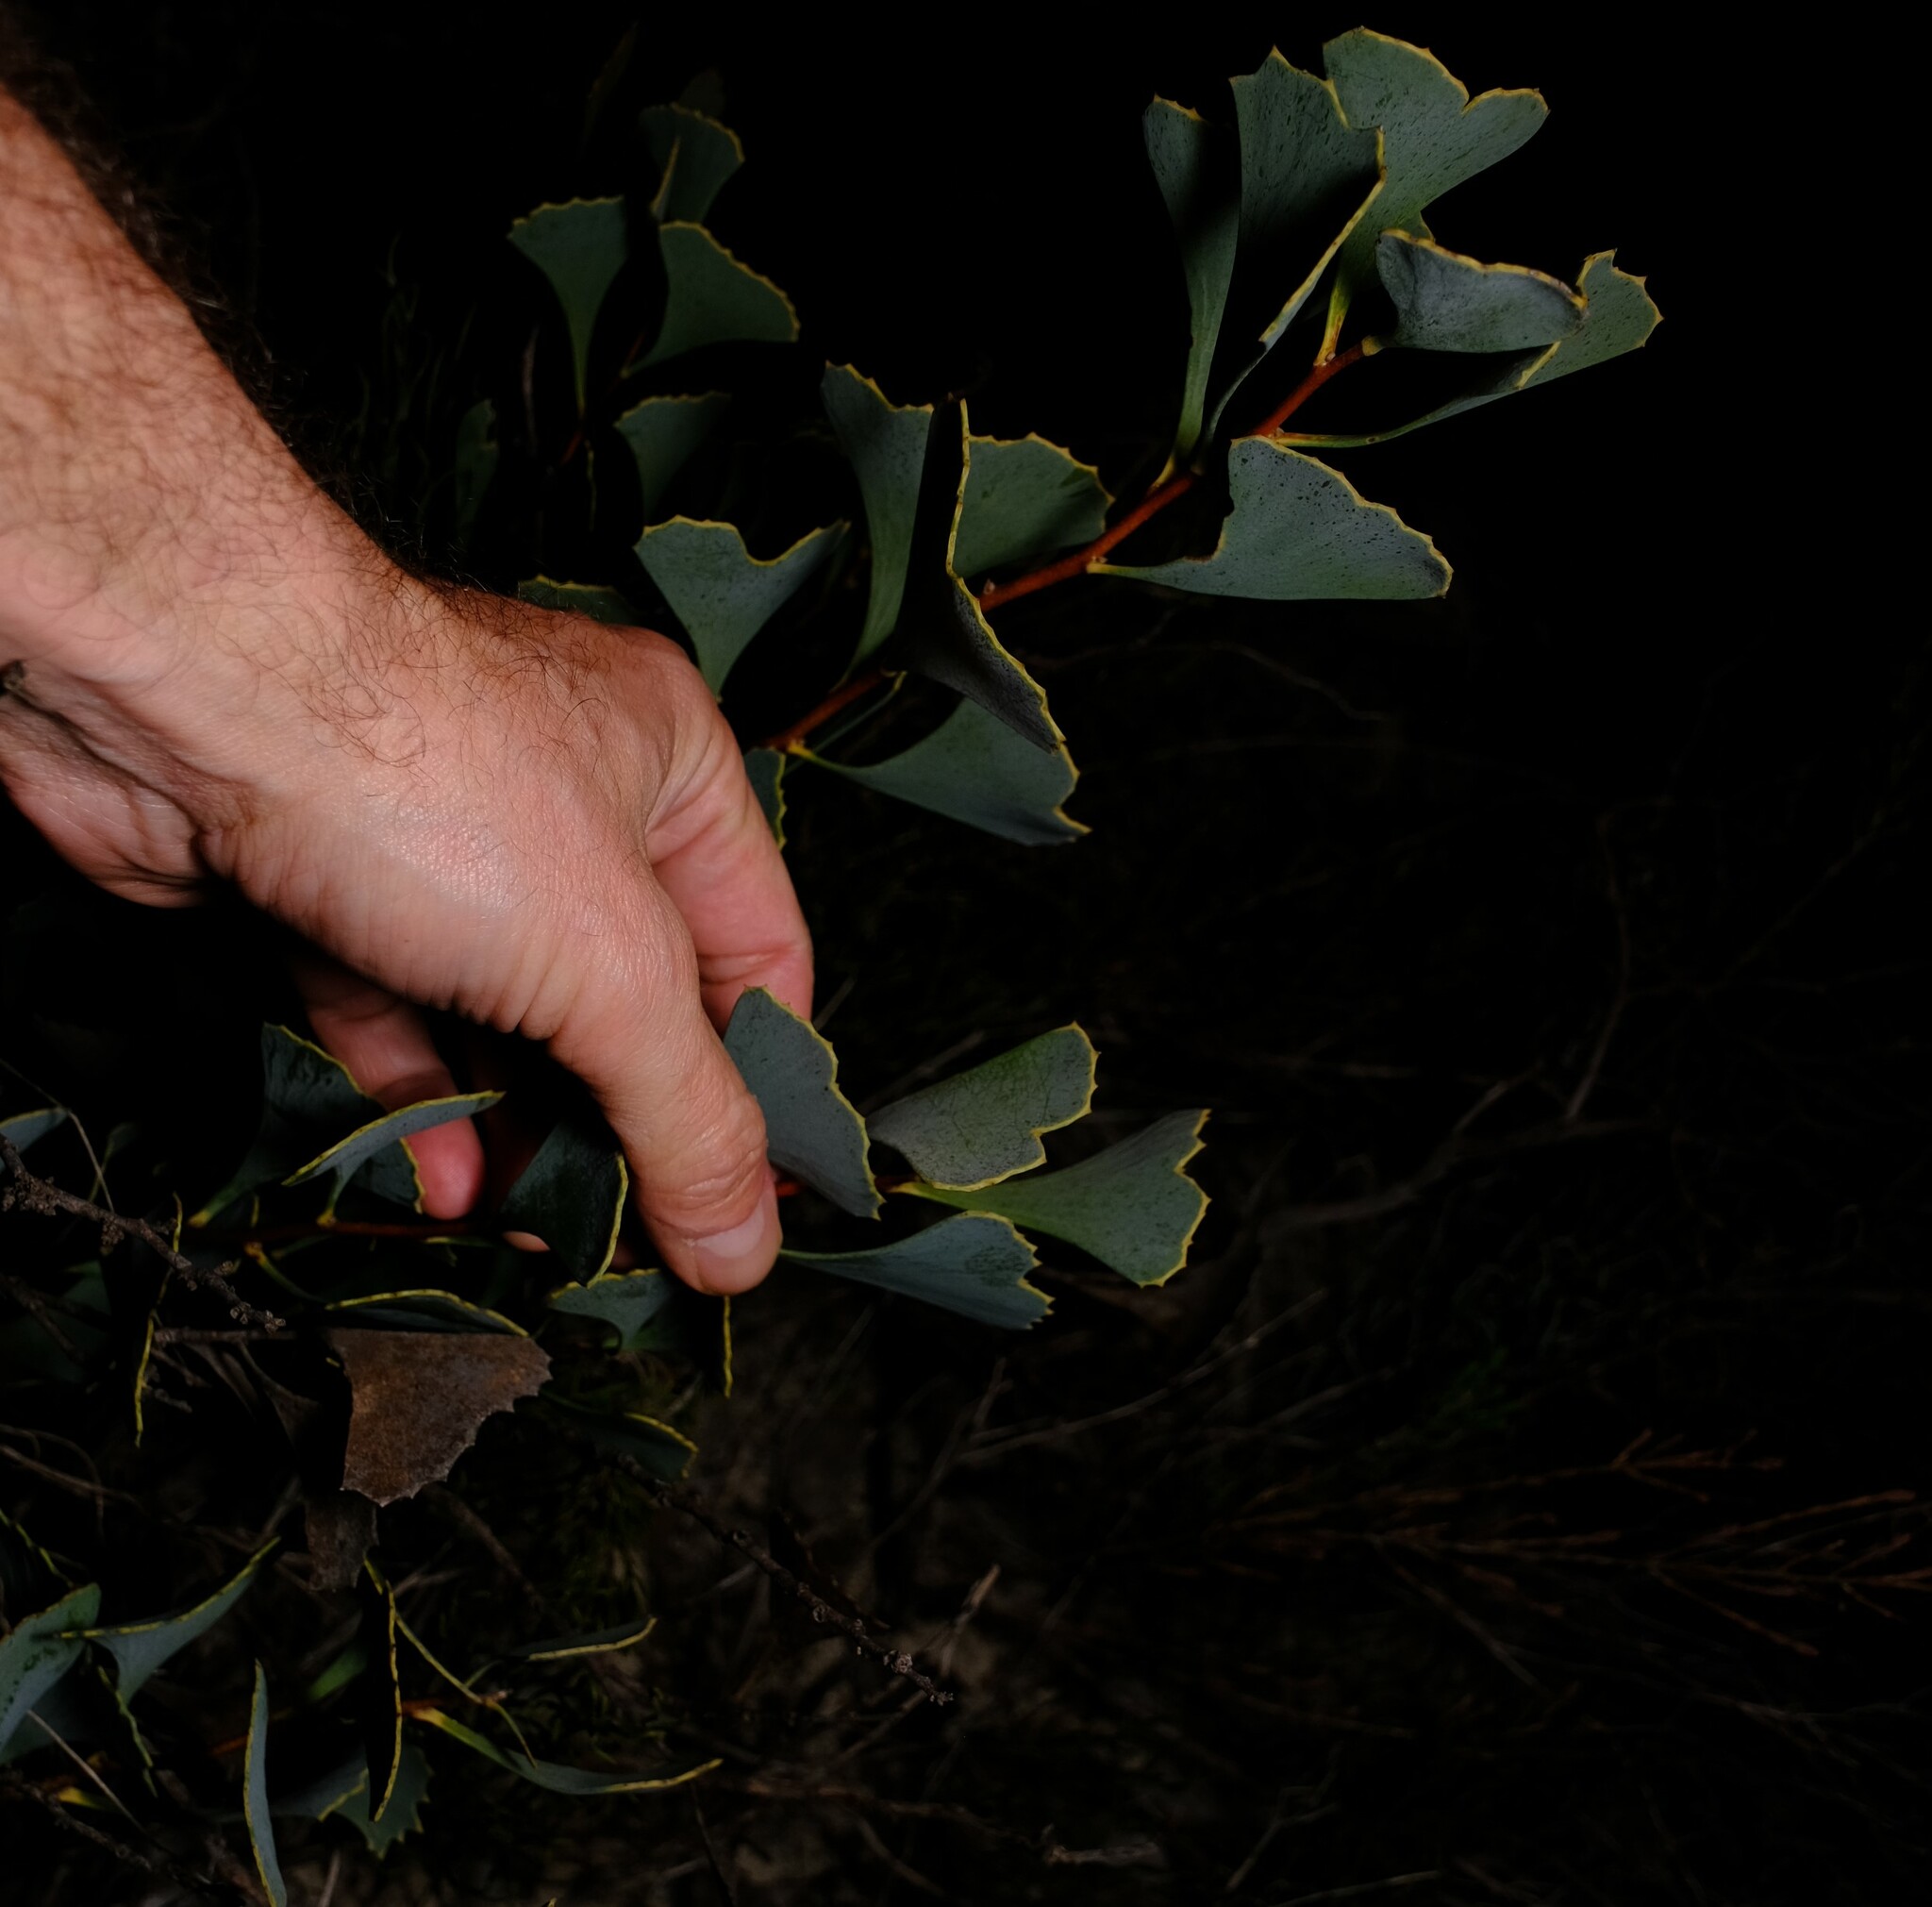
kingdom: Plantae
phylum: Tracheophyta
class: Magnoliopsida
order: Proteales
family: Proteaceae
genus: Hakea
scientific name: Hakea flabellifolia
